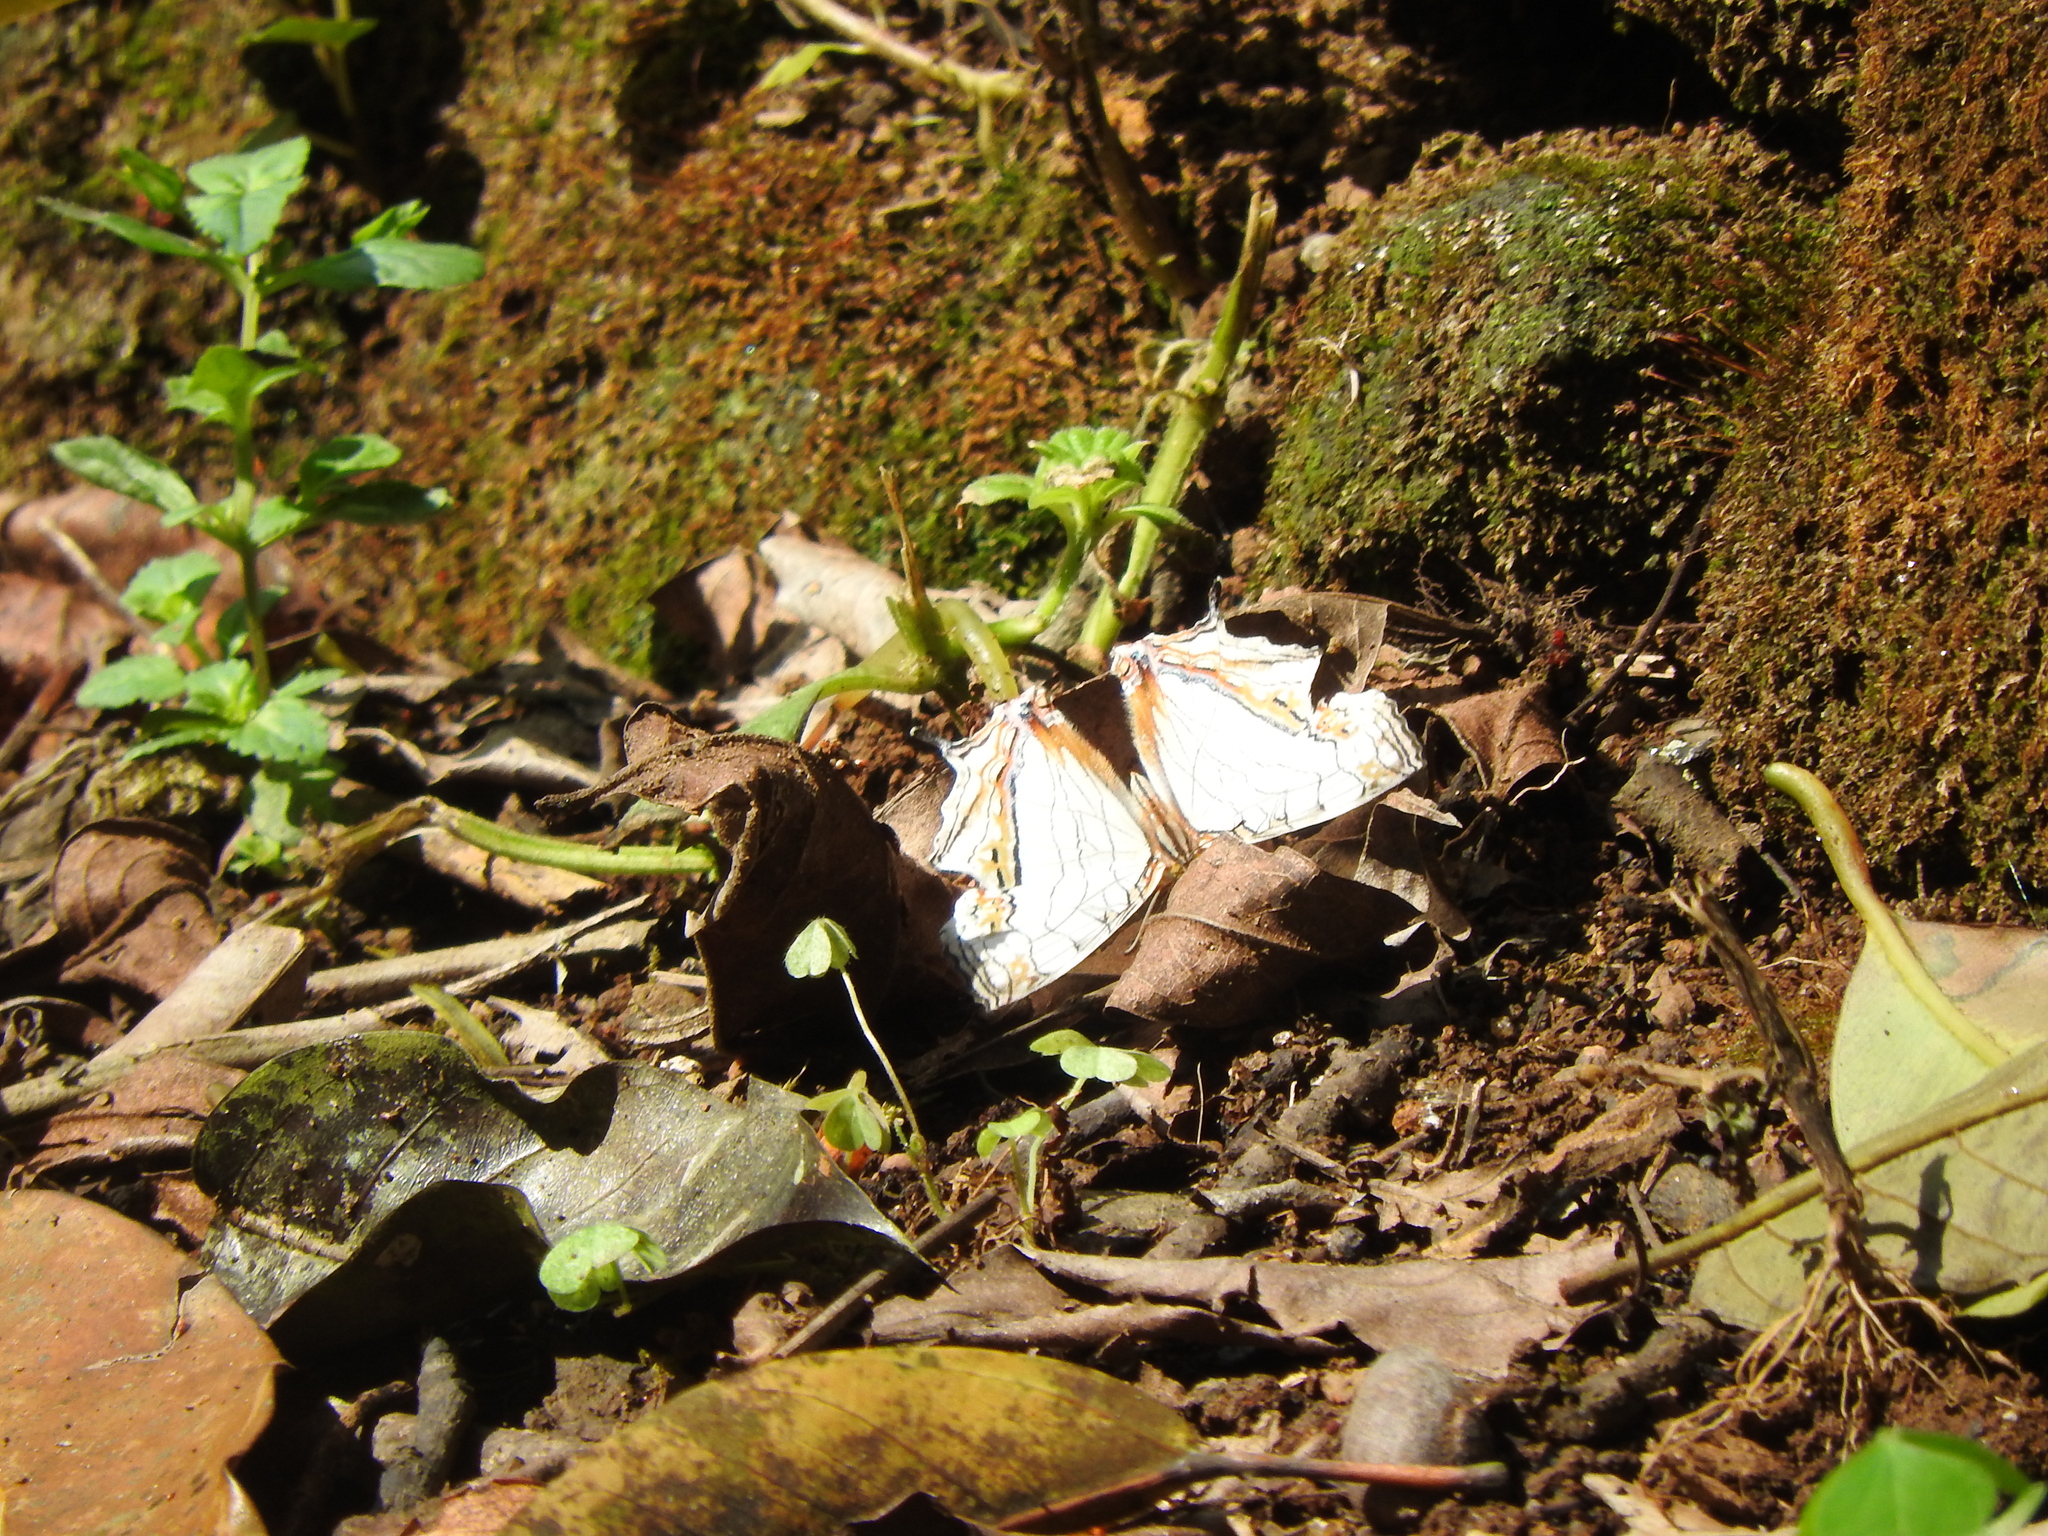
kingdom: Animalia
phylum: Arthropoda
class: Insecta
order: Lepidoptera
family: Nymphalidae
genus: Cyrestis
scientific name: Cyrestis thyodamas
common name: Common mapwing
